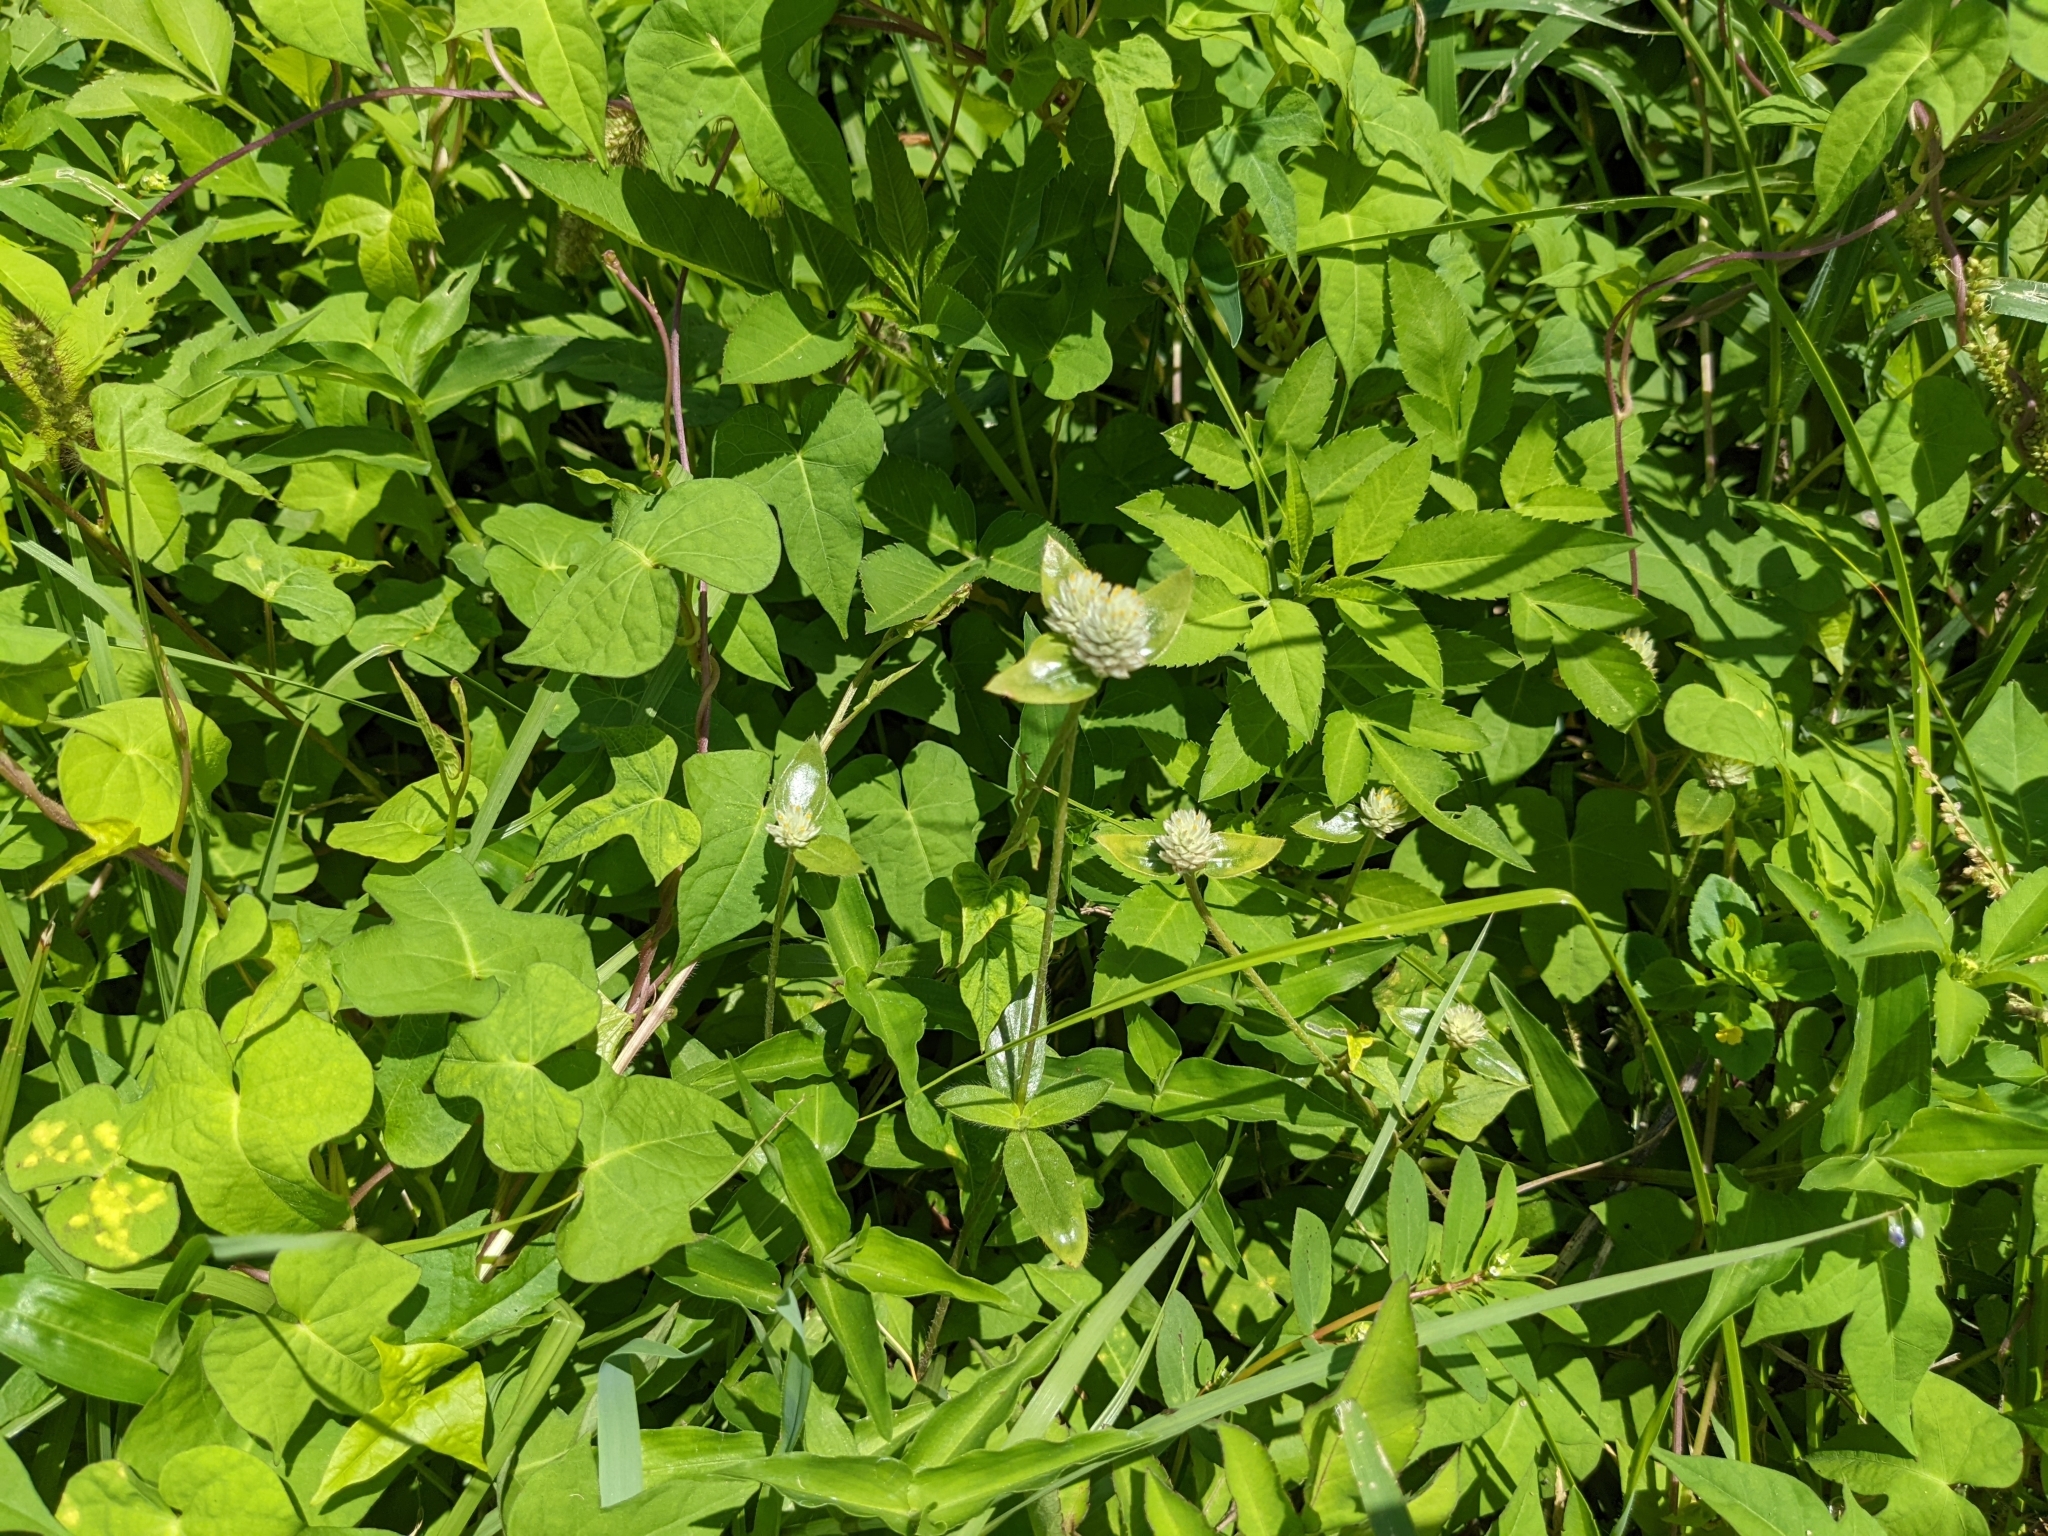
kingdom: Plantae
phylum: Tracheophyta
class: Magnoliopsida
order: Caryophyllales
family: Amaranthaceae
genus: Gomphrena
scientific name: Gomphrena serrata
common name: Arrasa con todo
